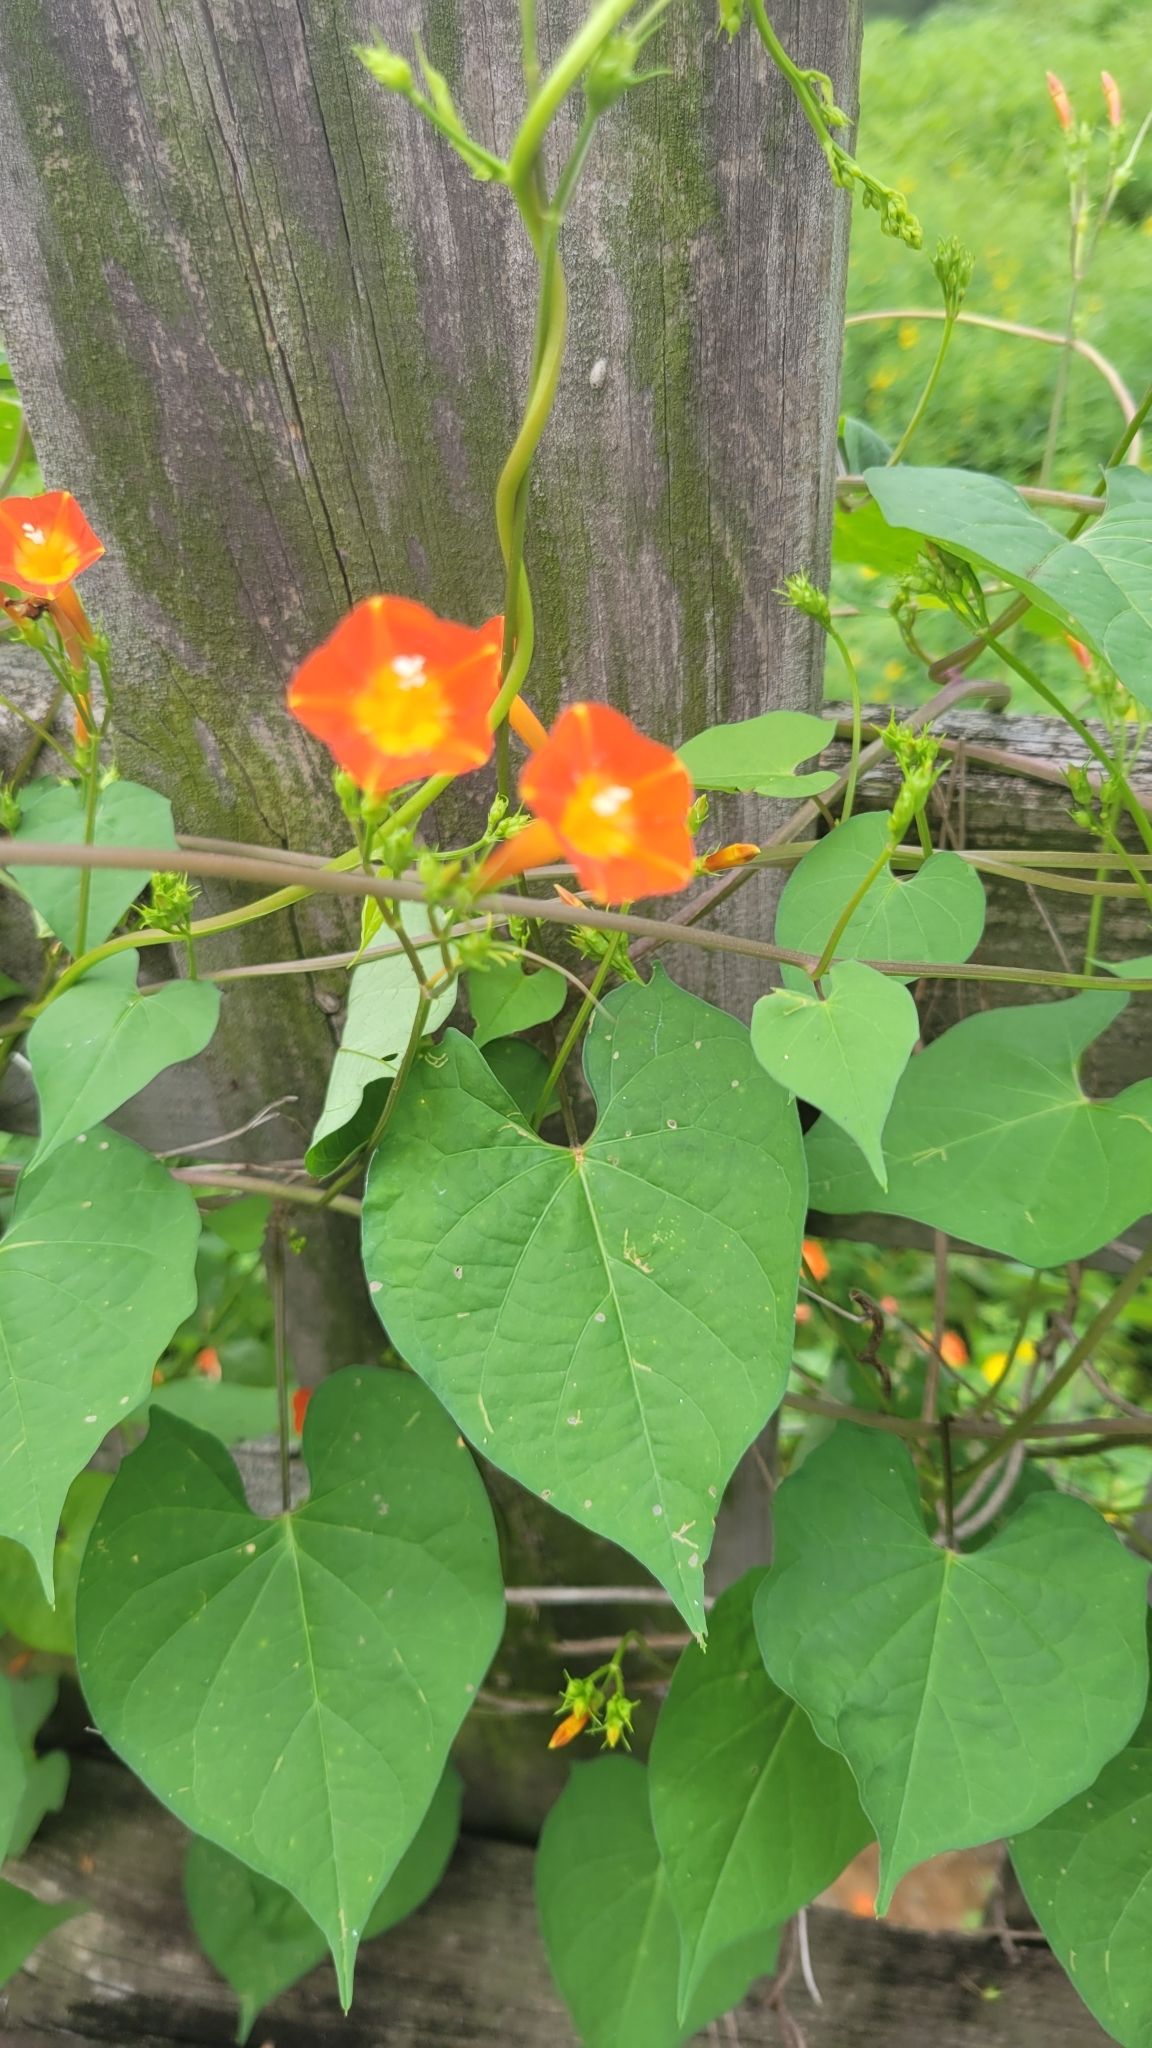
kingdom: Plantae
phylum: Tracheophyta
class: Magnoliopsida
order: Solanales
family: Convolvulaceae
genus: Ipomoea
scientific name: Ipomoea coccinea
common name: Red morning-glory
